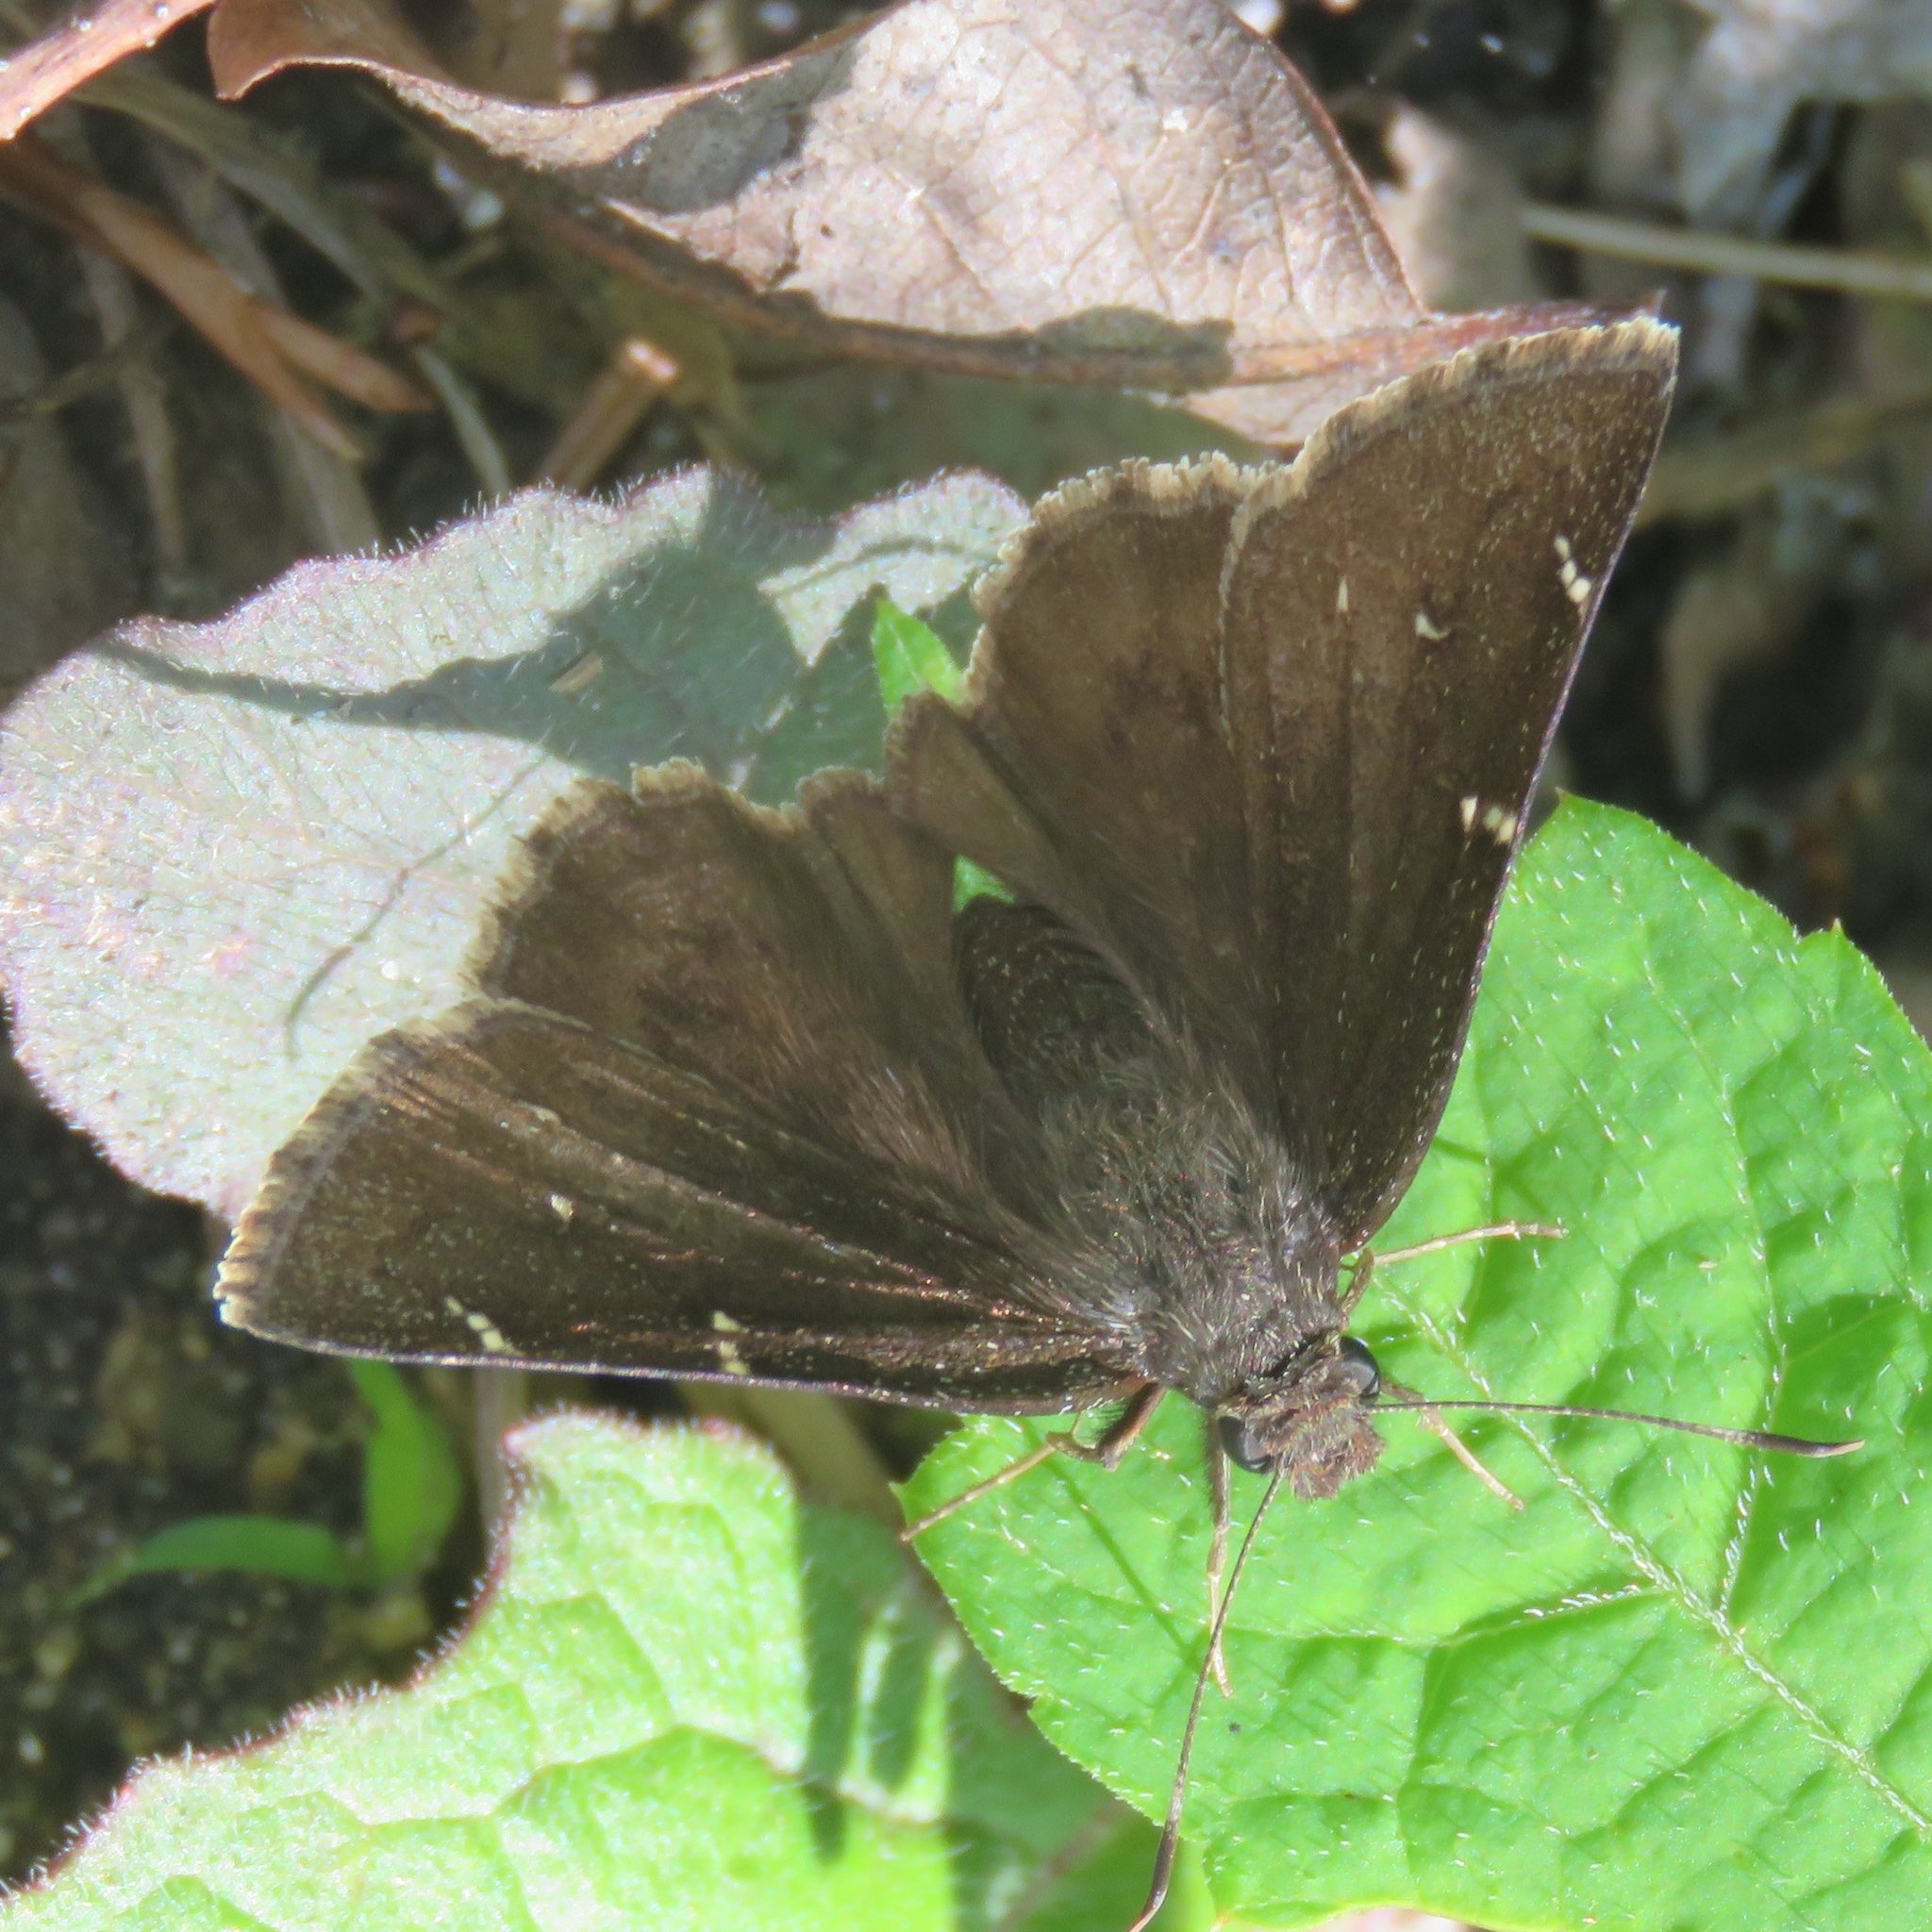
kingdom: Animalia
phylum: Arthropoda
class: Insecta
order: Lepidoptera
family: Hesperiidae
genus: Thorybes
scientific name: Thorybes
